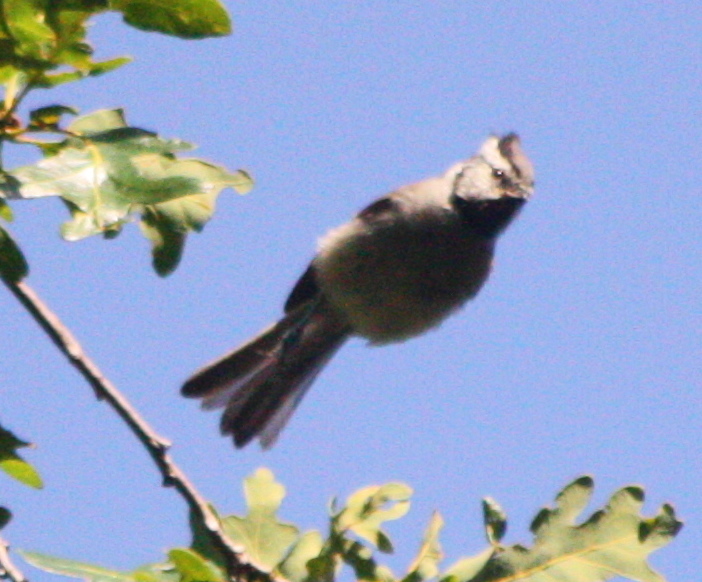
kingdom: Animalia
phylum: Chordata
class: Aves
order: Passeriformes
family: Paridae
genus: Baeolophus
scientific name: Baeolophus wollweberi
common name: Bridled titmouse
